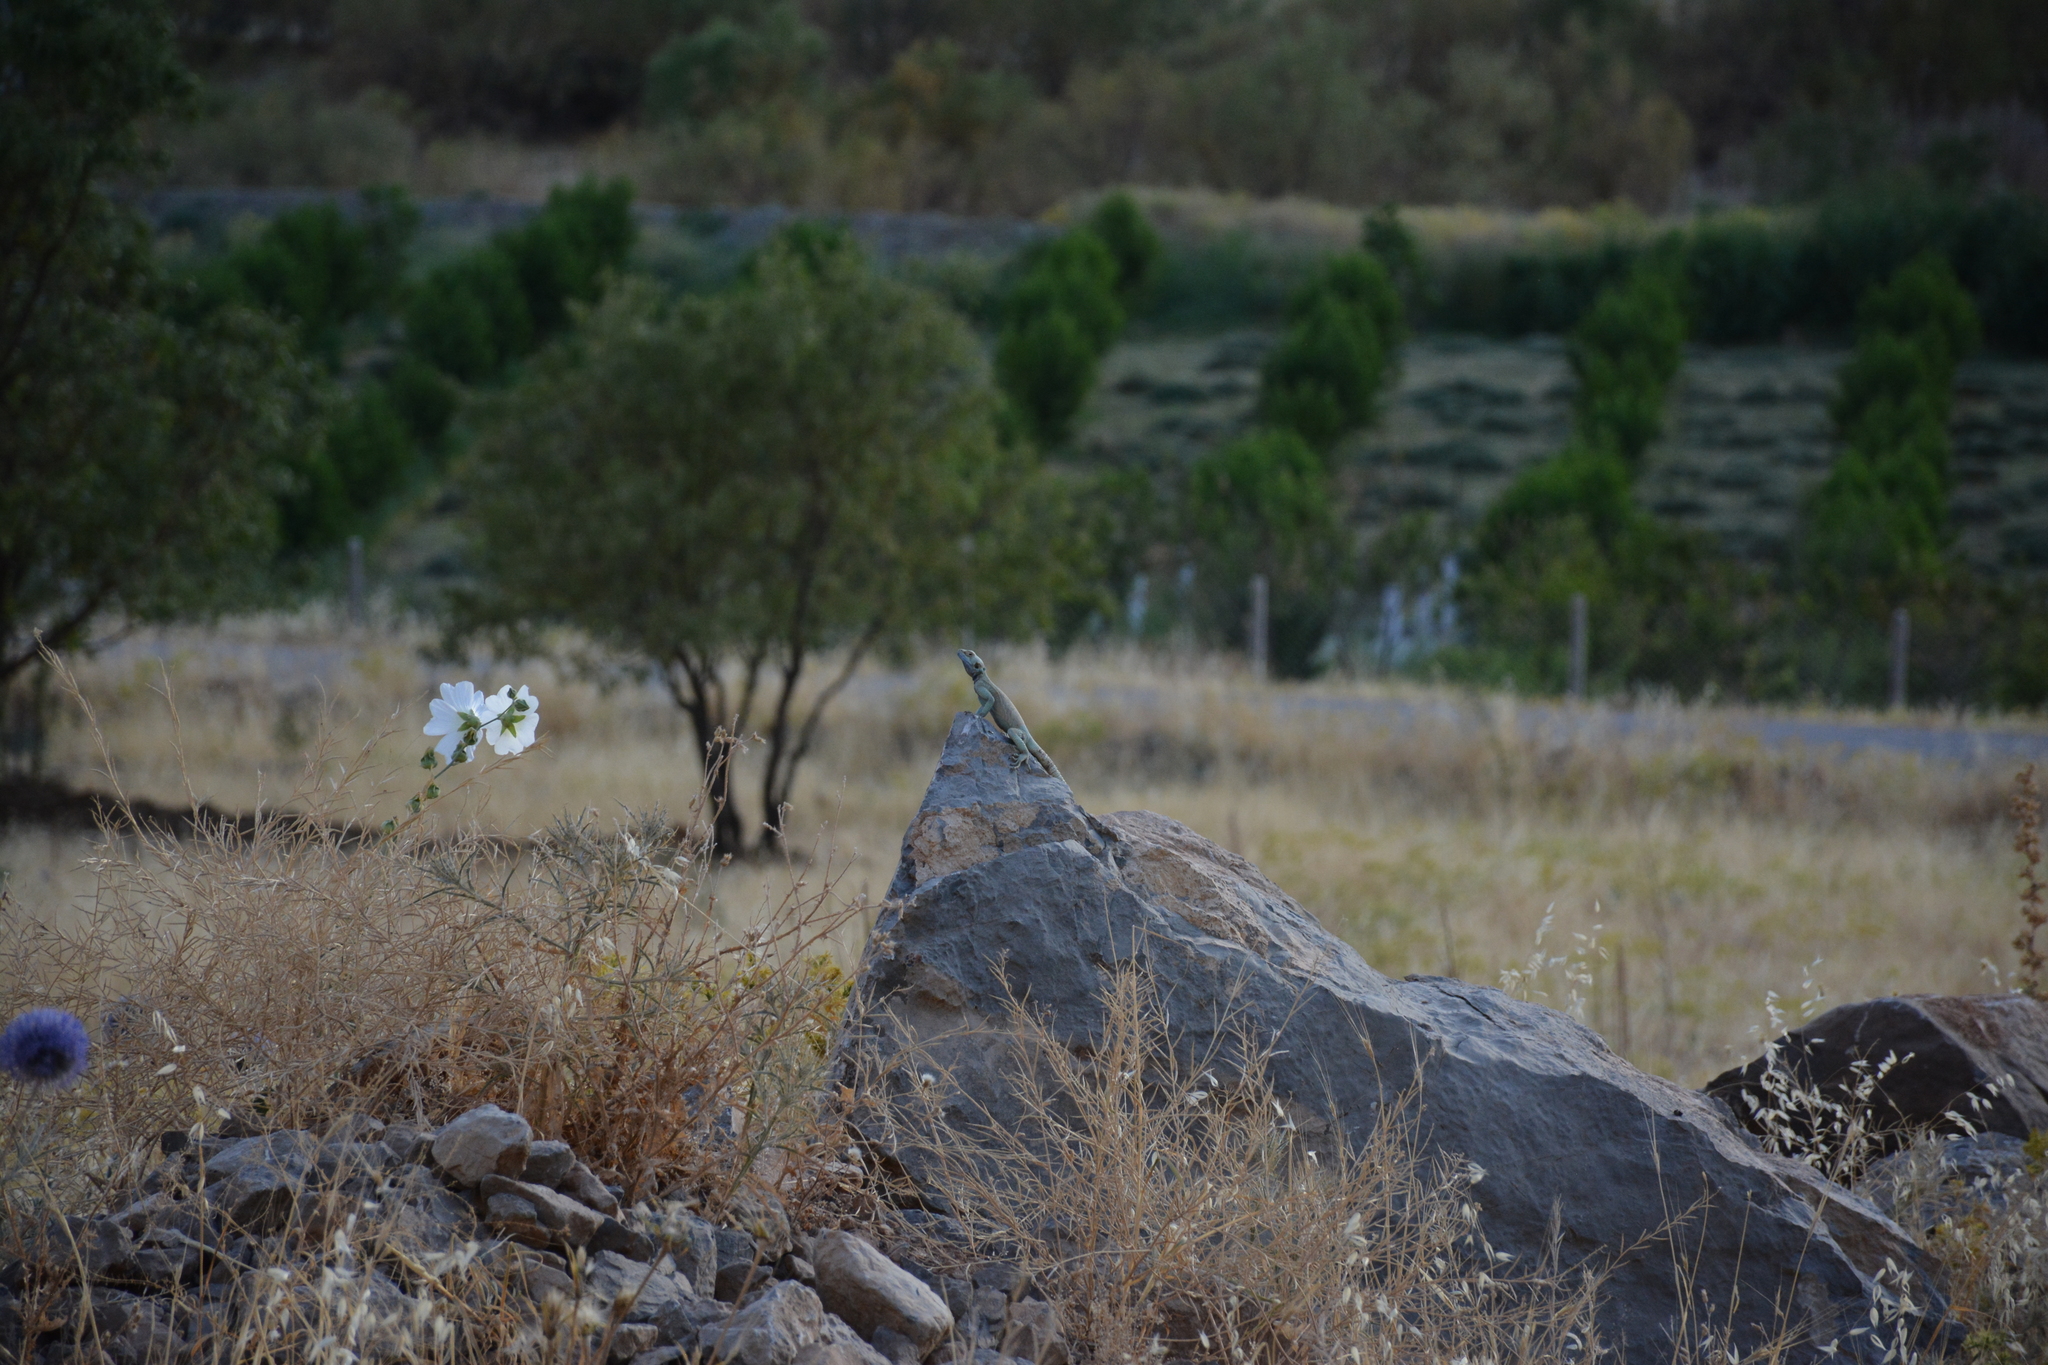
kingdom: Animalia
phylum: Chordata
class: Squamata
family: Agamidae
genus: Laudakia
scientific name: Laudakia nupta
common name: Large-headed rock agama
